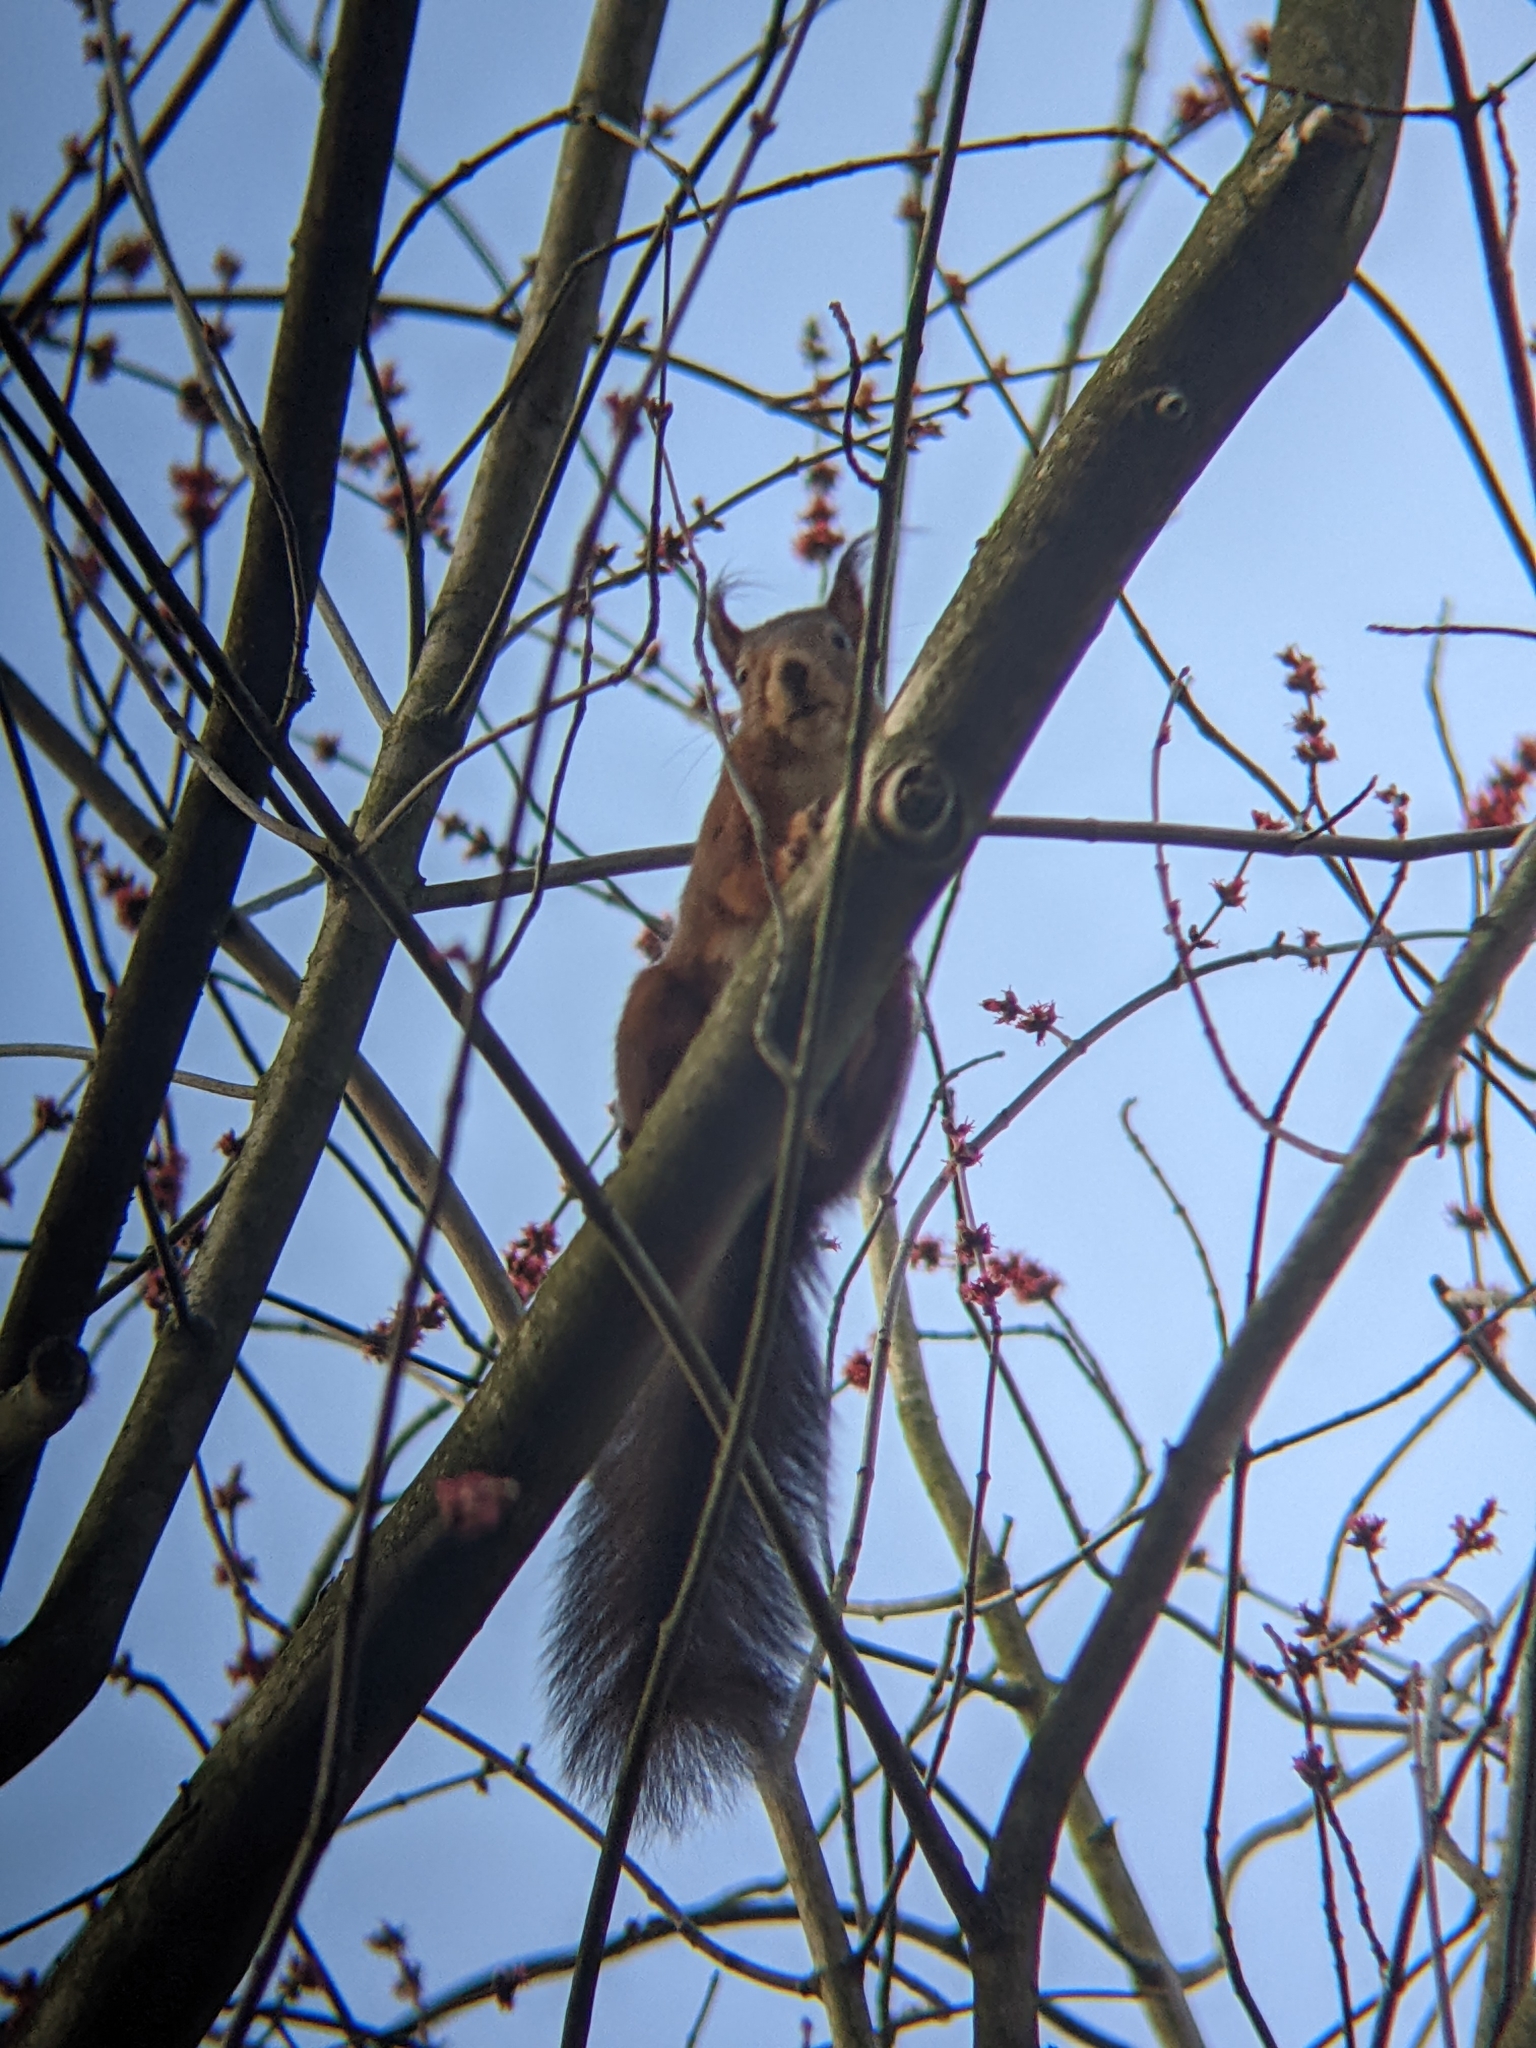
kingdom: Animalia
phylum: Chordata
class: Mammalia
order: Rodentia
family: Sciuridae
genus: Sciurus
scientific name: Sciurus vulgaris
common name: Eurasian red squirrel
